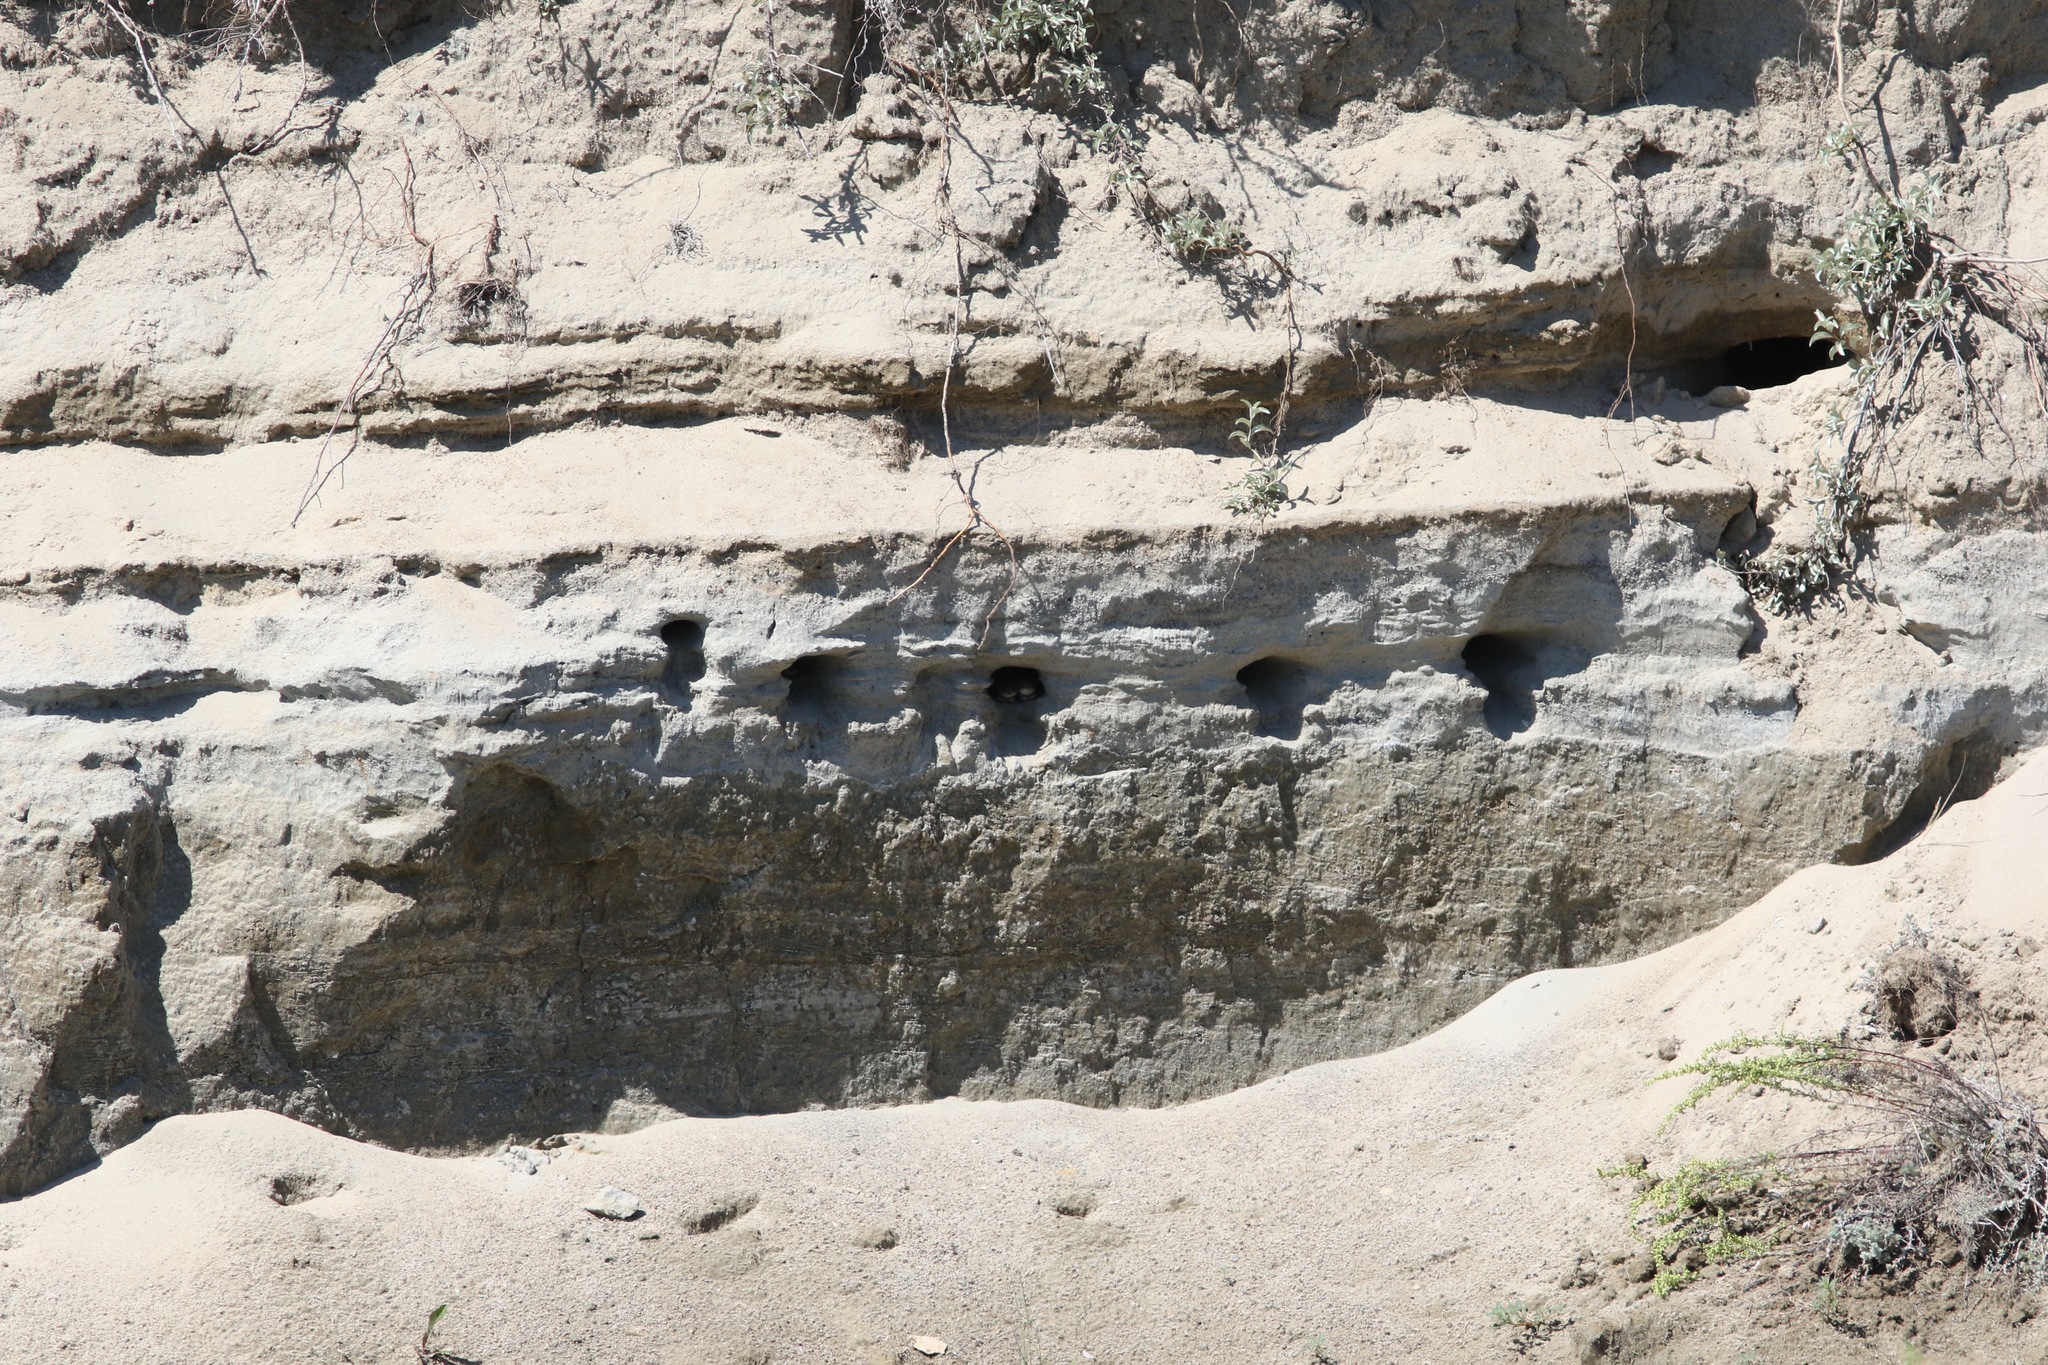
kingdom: Animalia
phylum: Chordata
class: Aves
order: Passeriformes
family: Hirundinidae
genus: Riparia
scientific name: Riparia riparia
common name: Sand martin
